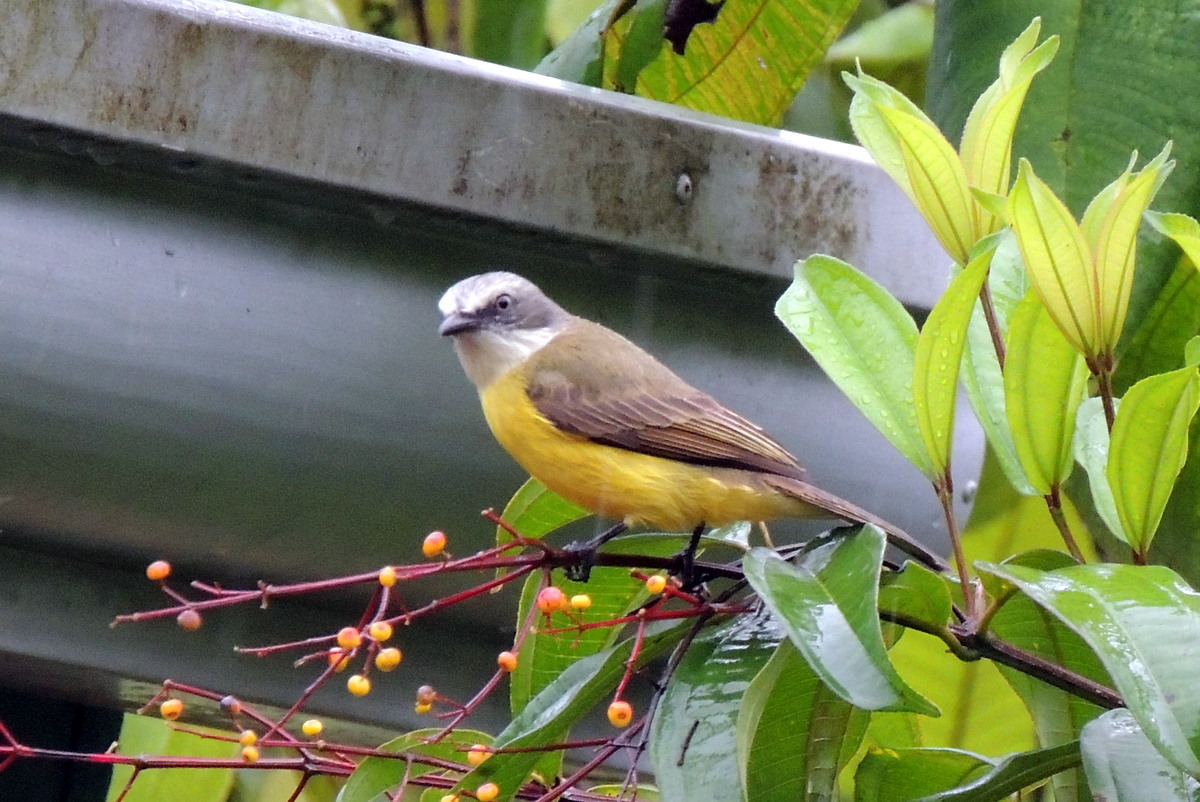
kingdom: Animalia
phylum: Chordata
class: Aves
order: Passeriformes
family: Tyrannidae
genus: Myiozetetes
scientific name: Myiozetetes granadensis
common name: Gray-capped flycatcher
